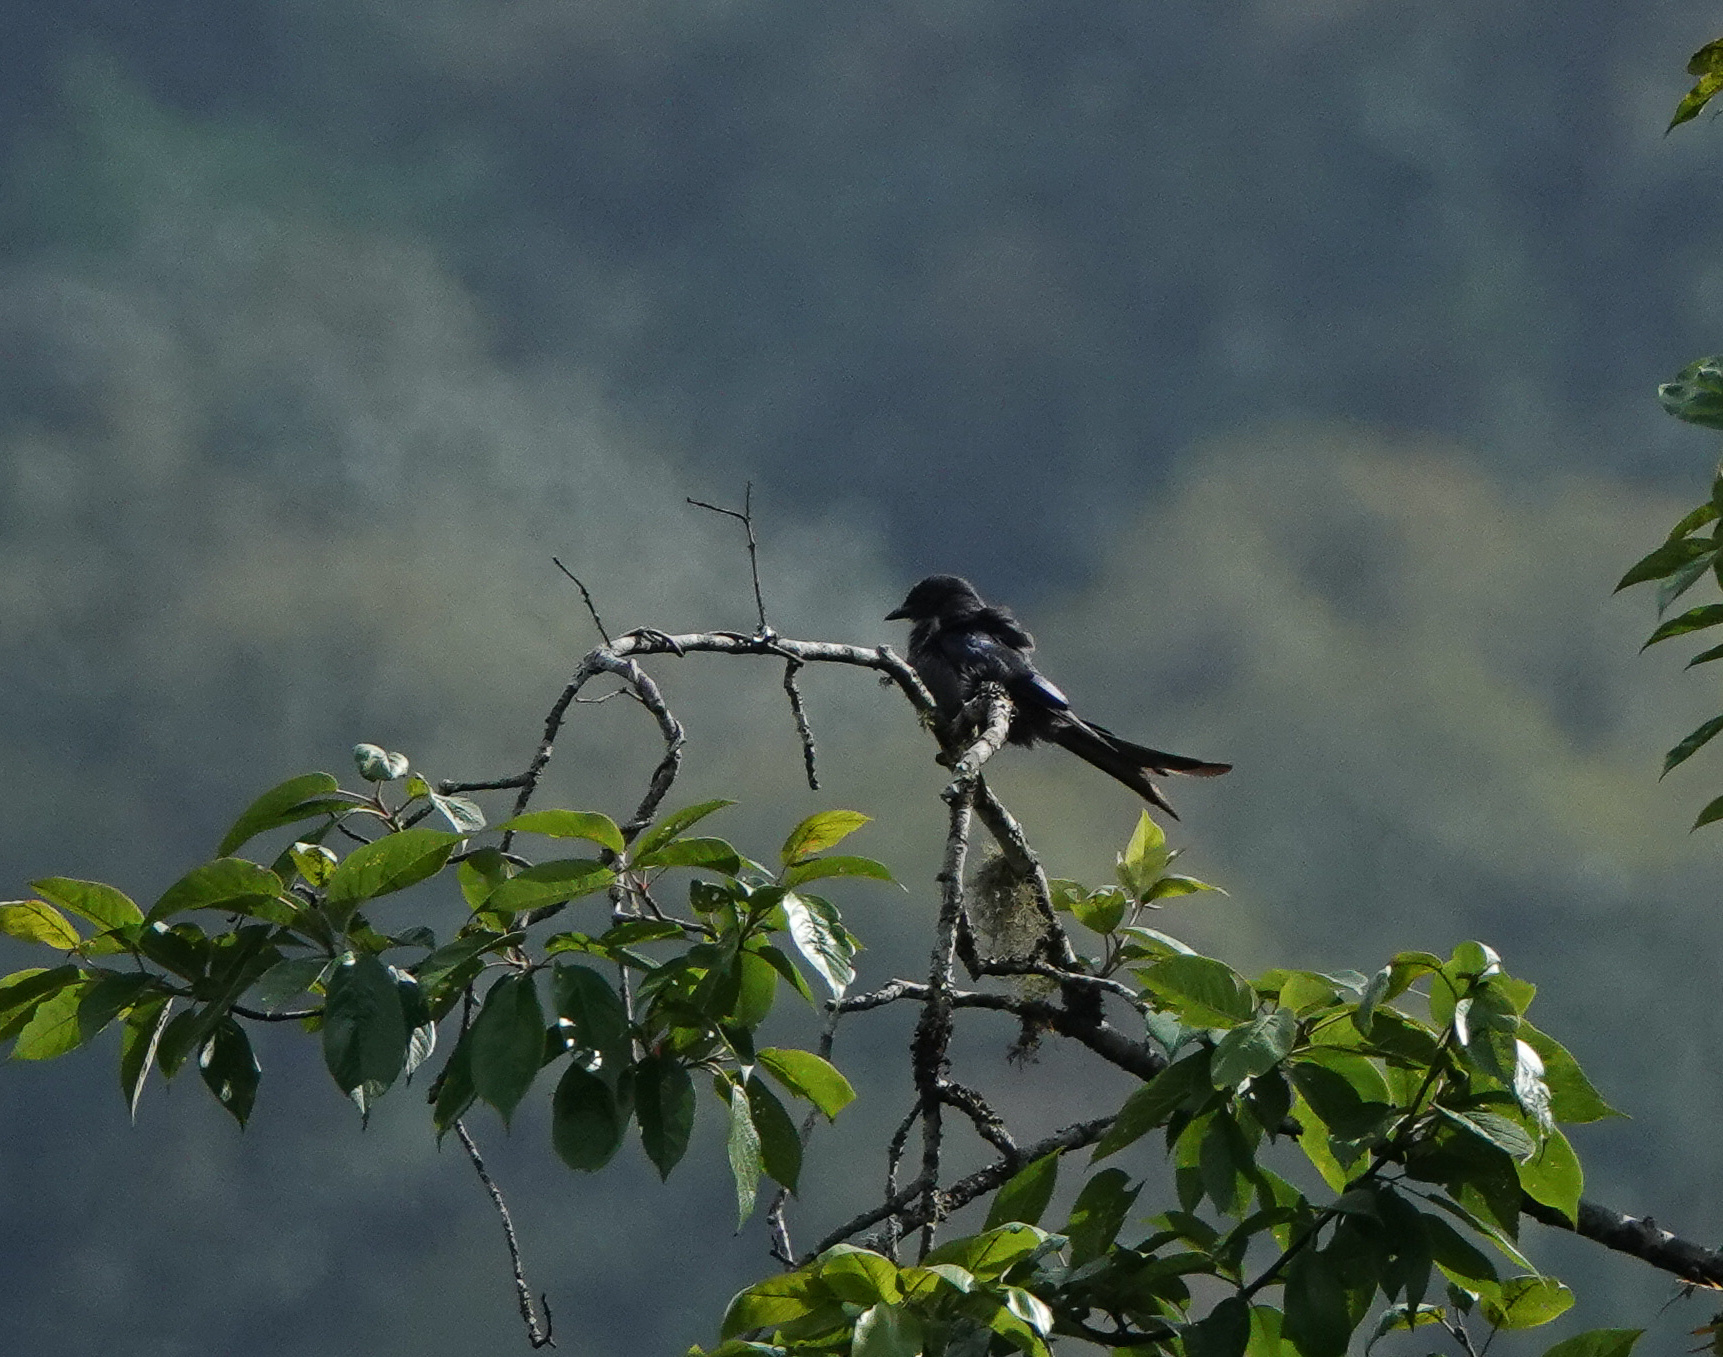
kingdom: Animalia
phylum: Chordata
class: Aves
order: Passeriformes
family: Dicruridae
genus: Dicrurus
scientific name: Dicrurus leucophaeus
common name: Ashy drongo
